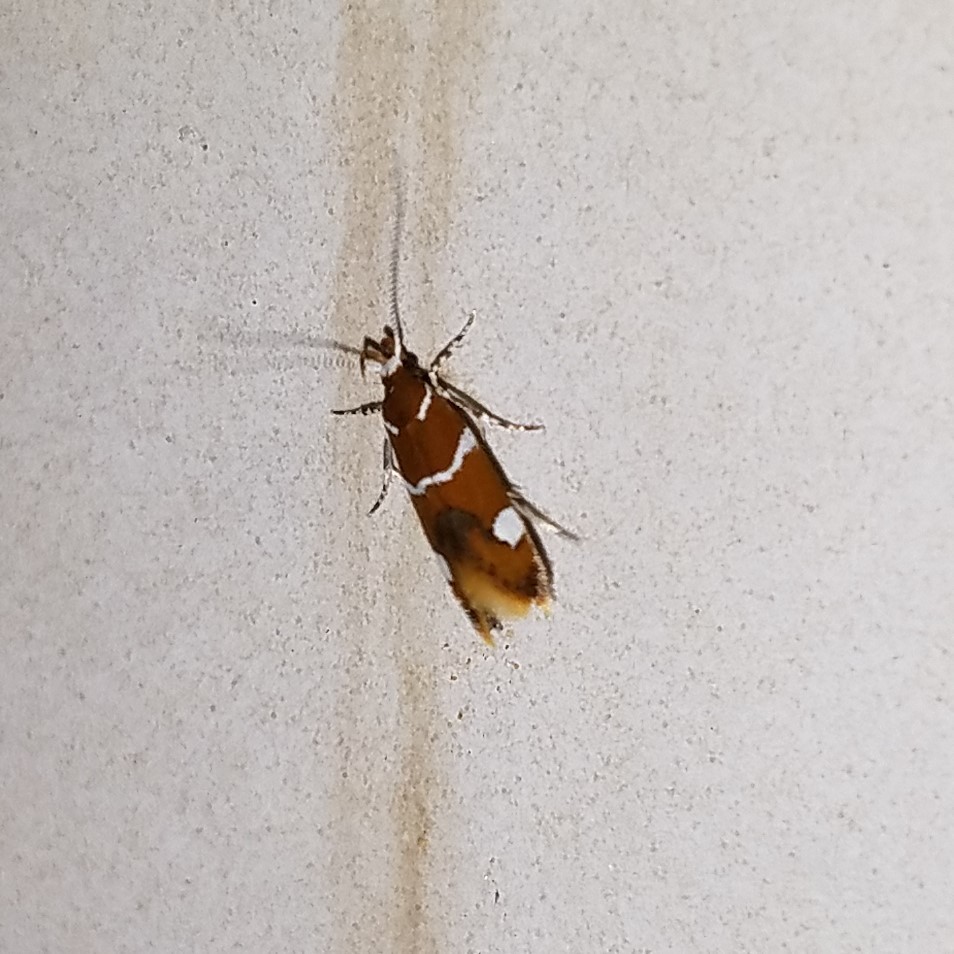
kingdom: Animalia
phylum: Arthropoda
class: Insecta
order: Lepidoptera
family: Oecophoridae
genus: Promalactis
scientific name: Promalactis suzukiella
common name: Moth
